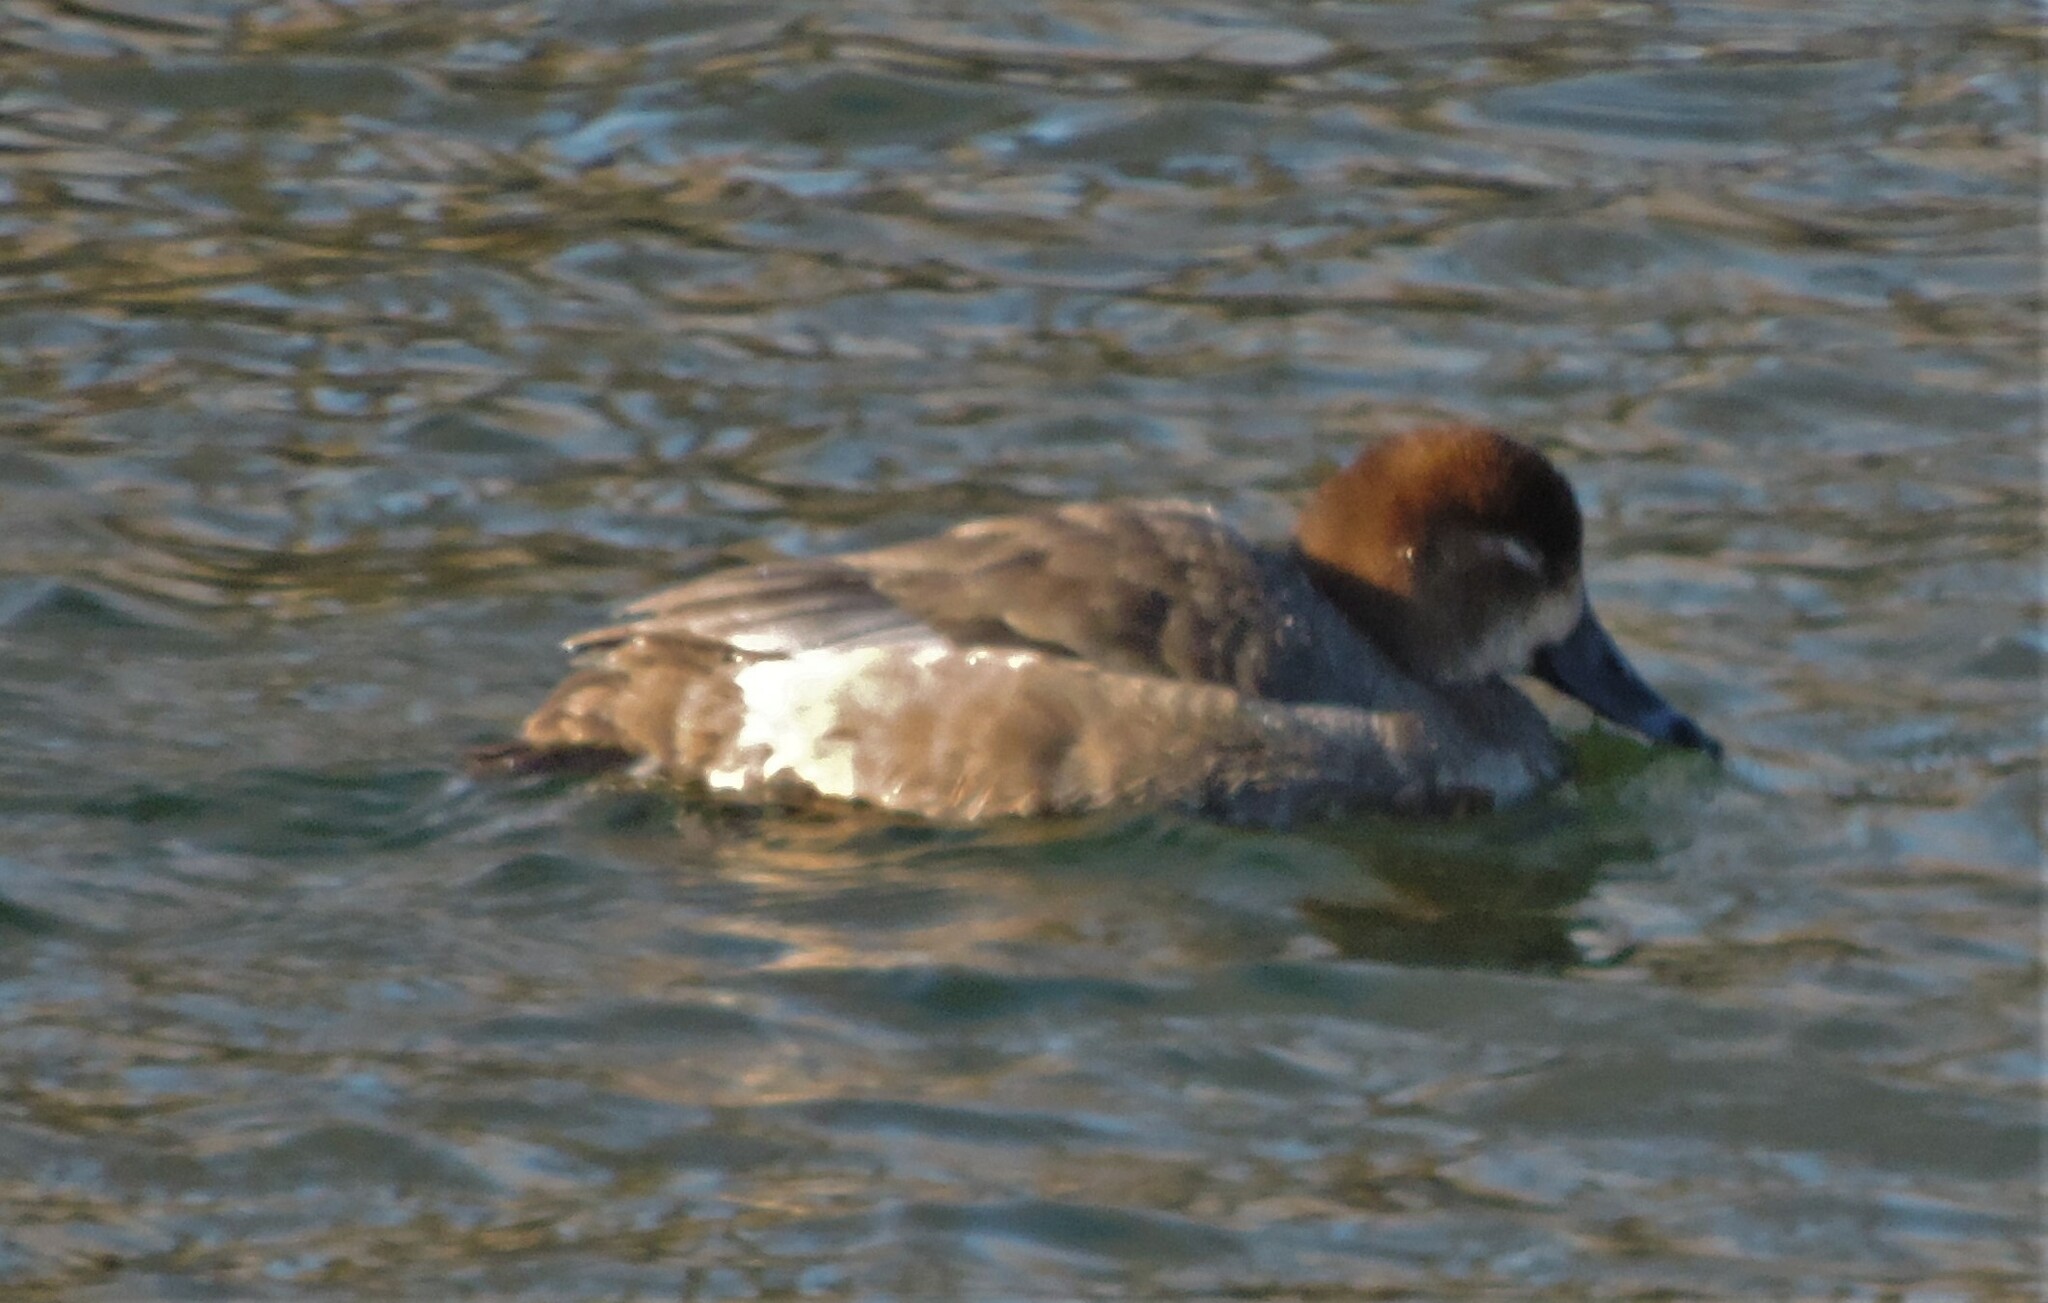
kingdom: Animalia
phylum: Chordata
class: Aves
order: Anseriformes
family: Anatidae
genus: Aythya
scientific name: Aythya americana
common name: Redhead
